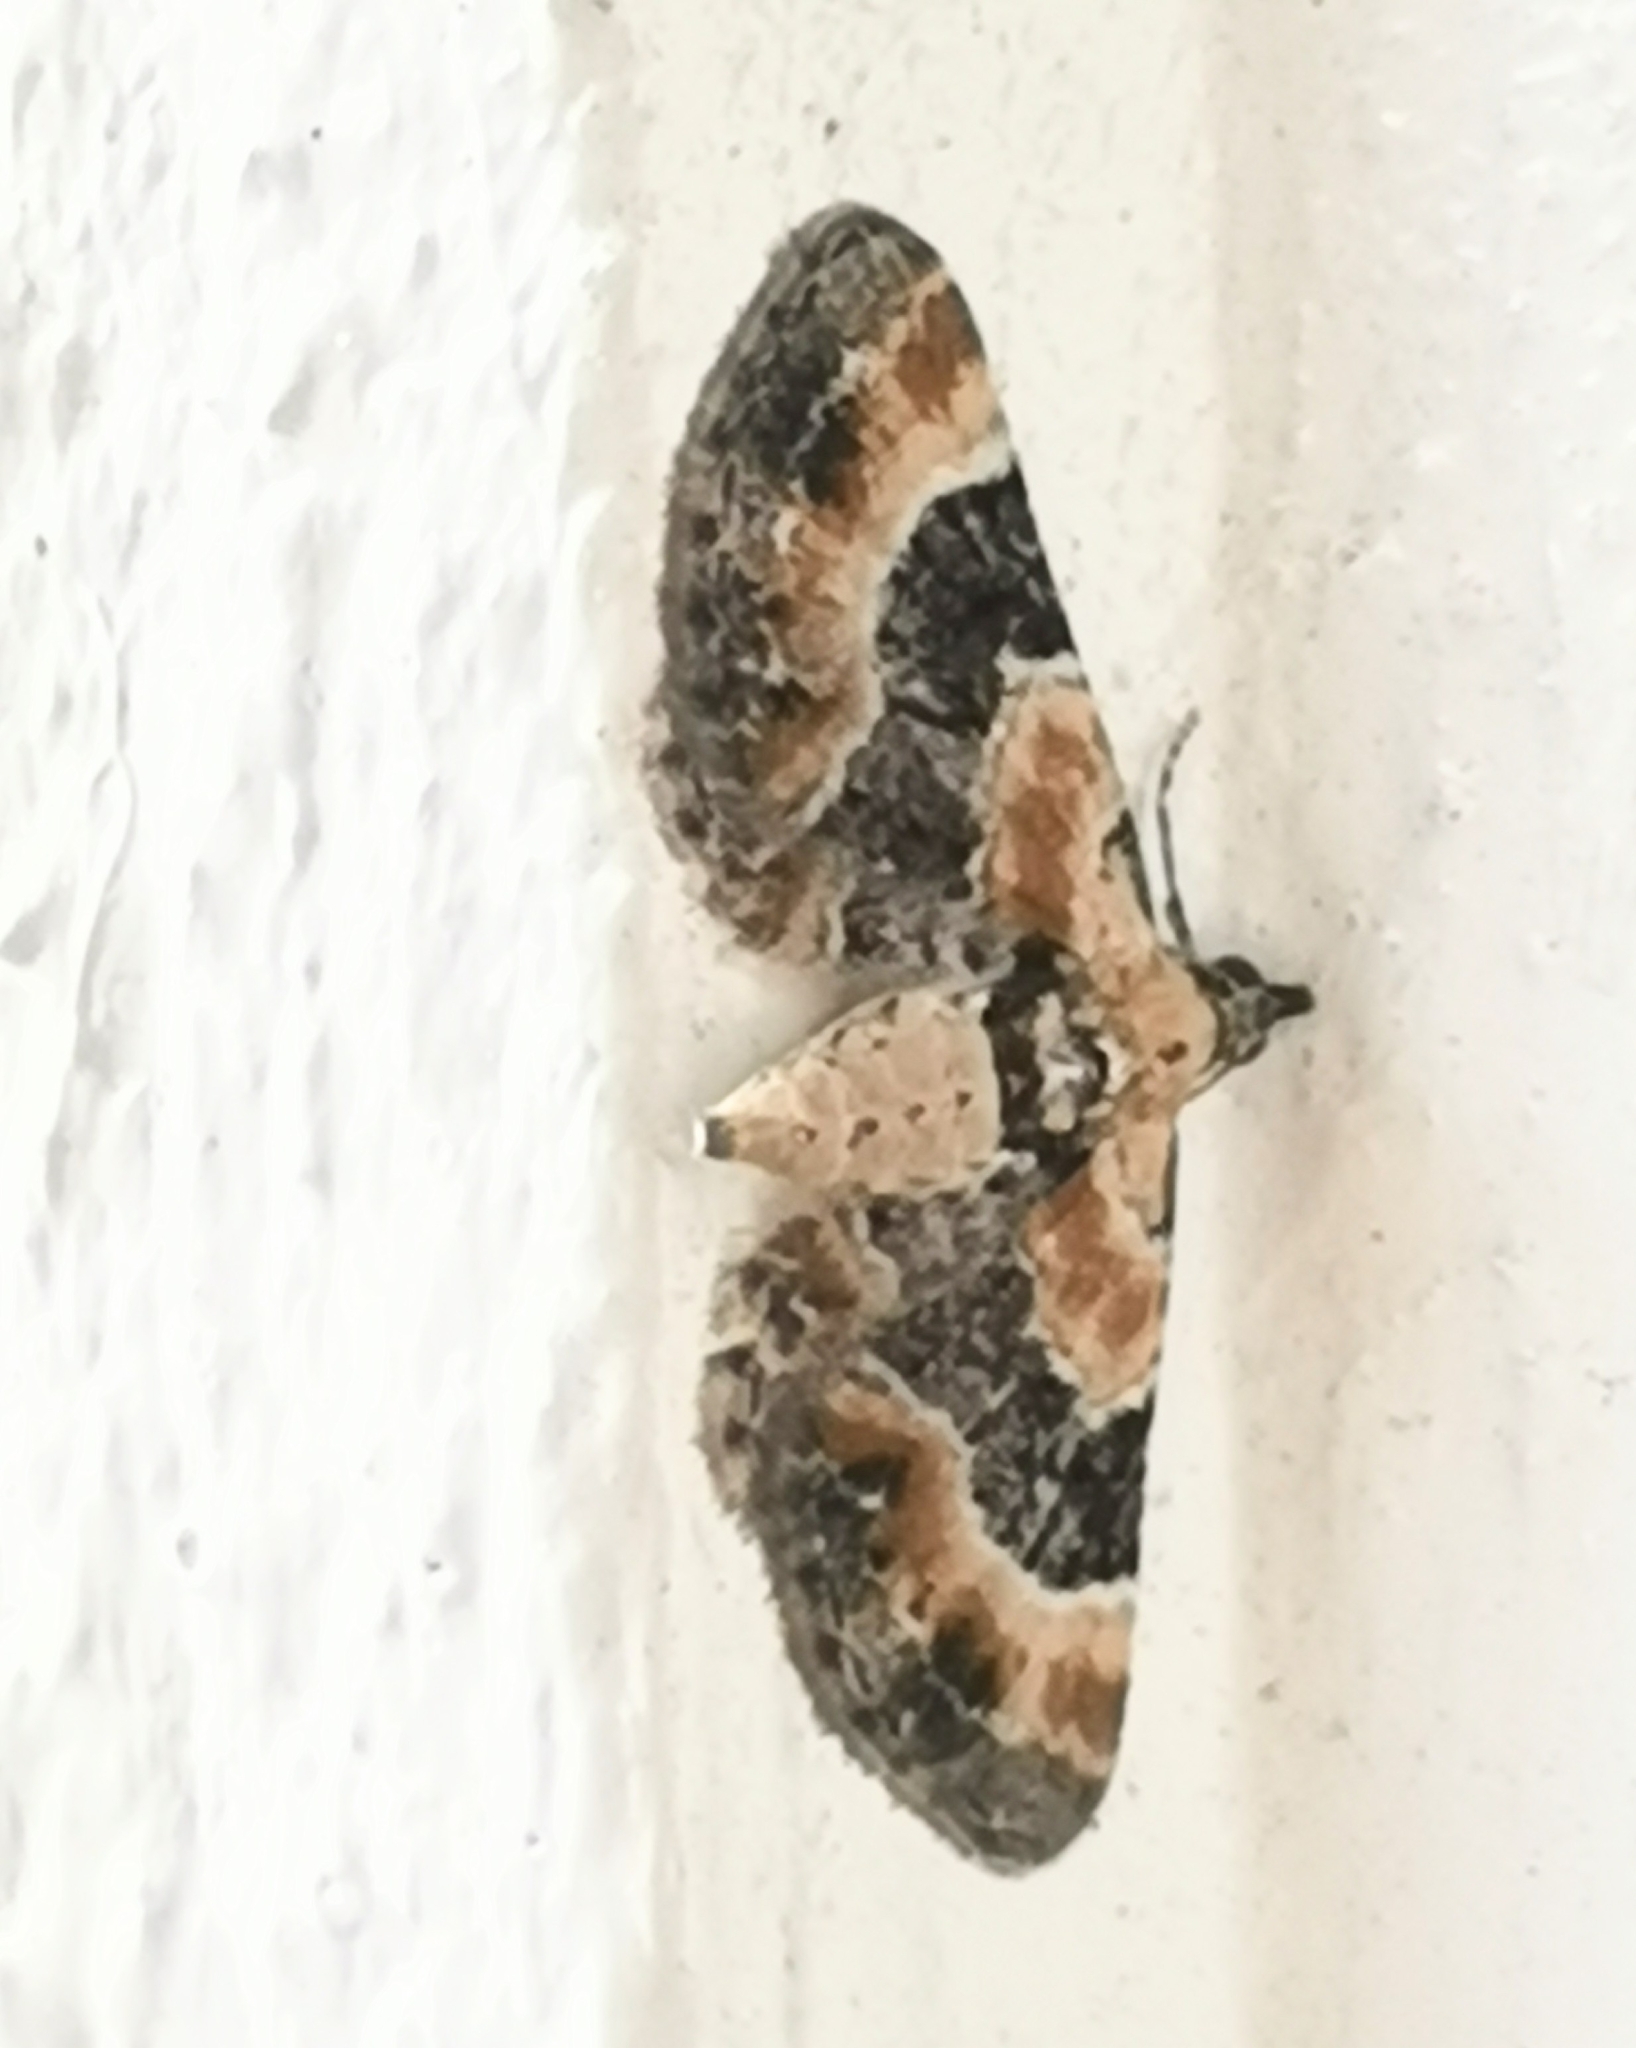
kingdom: Animalia
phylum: Arthropoda
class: Insecta
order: Lepidoptera
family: Geometridae
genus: Eupithecia
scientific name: Eupithecia linariata
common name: Toadflax pug
